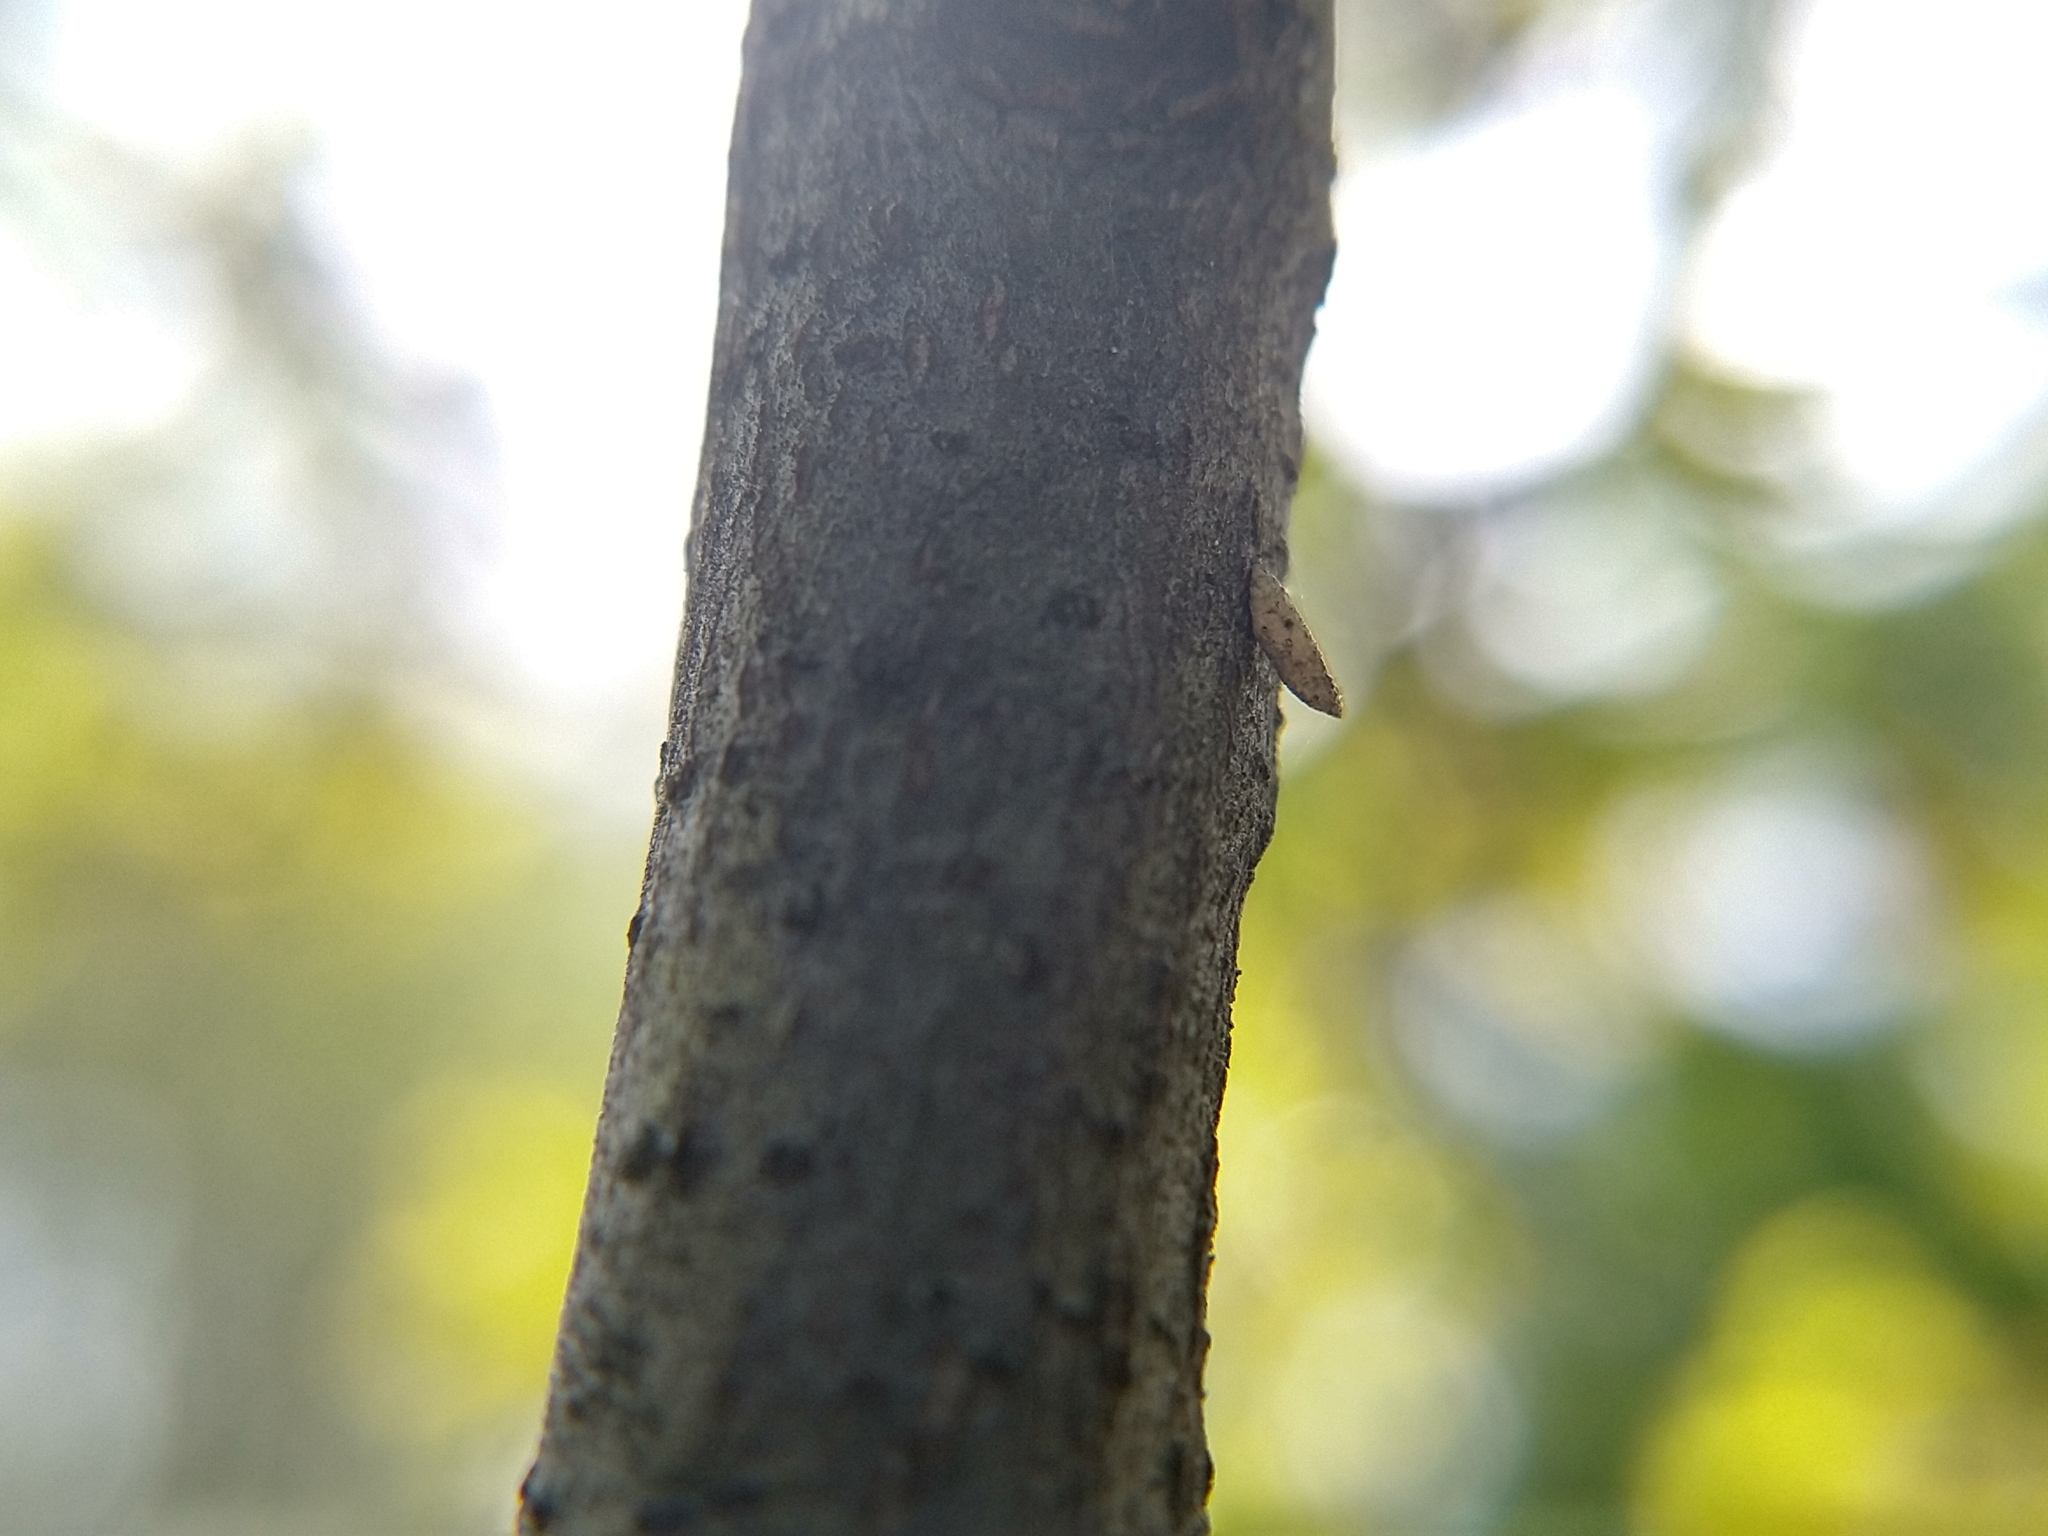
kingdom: Animalia
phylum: Arthropoda
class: Insecta
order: Lepidoptera
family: Heliozelidae
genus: Coptodisca
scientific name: Coptodisca
